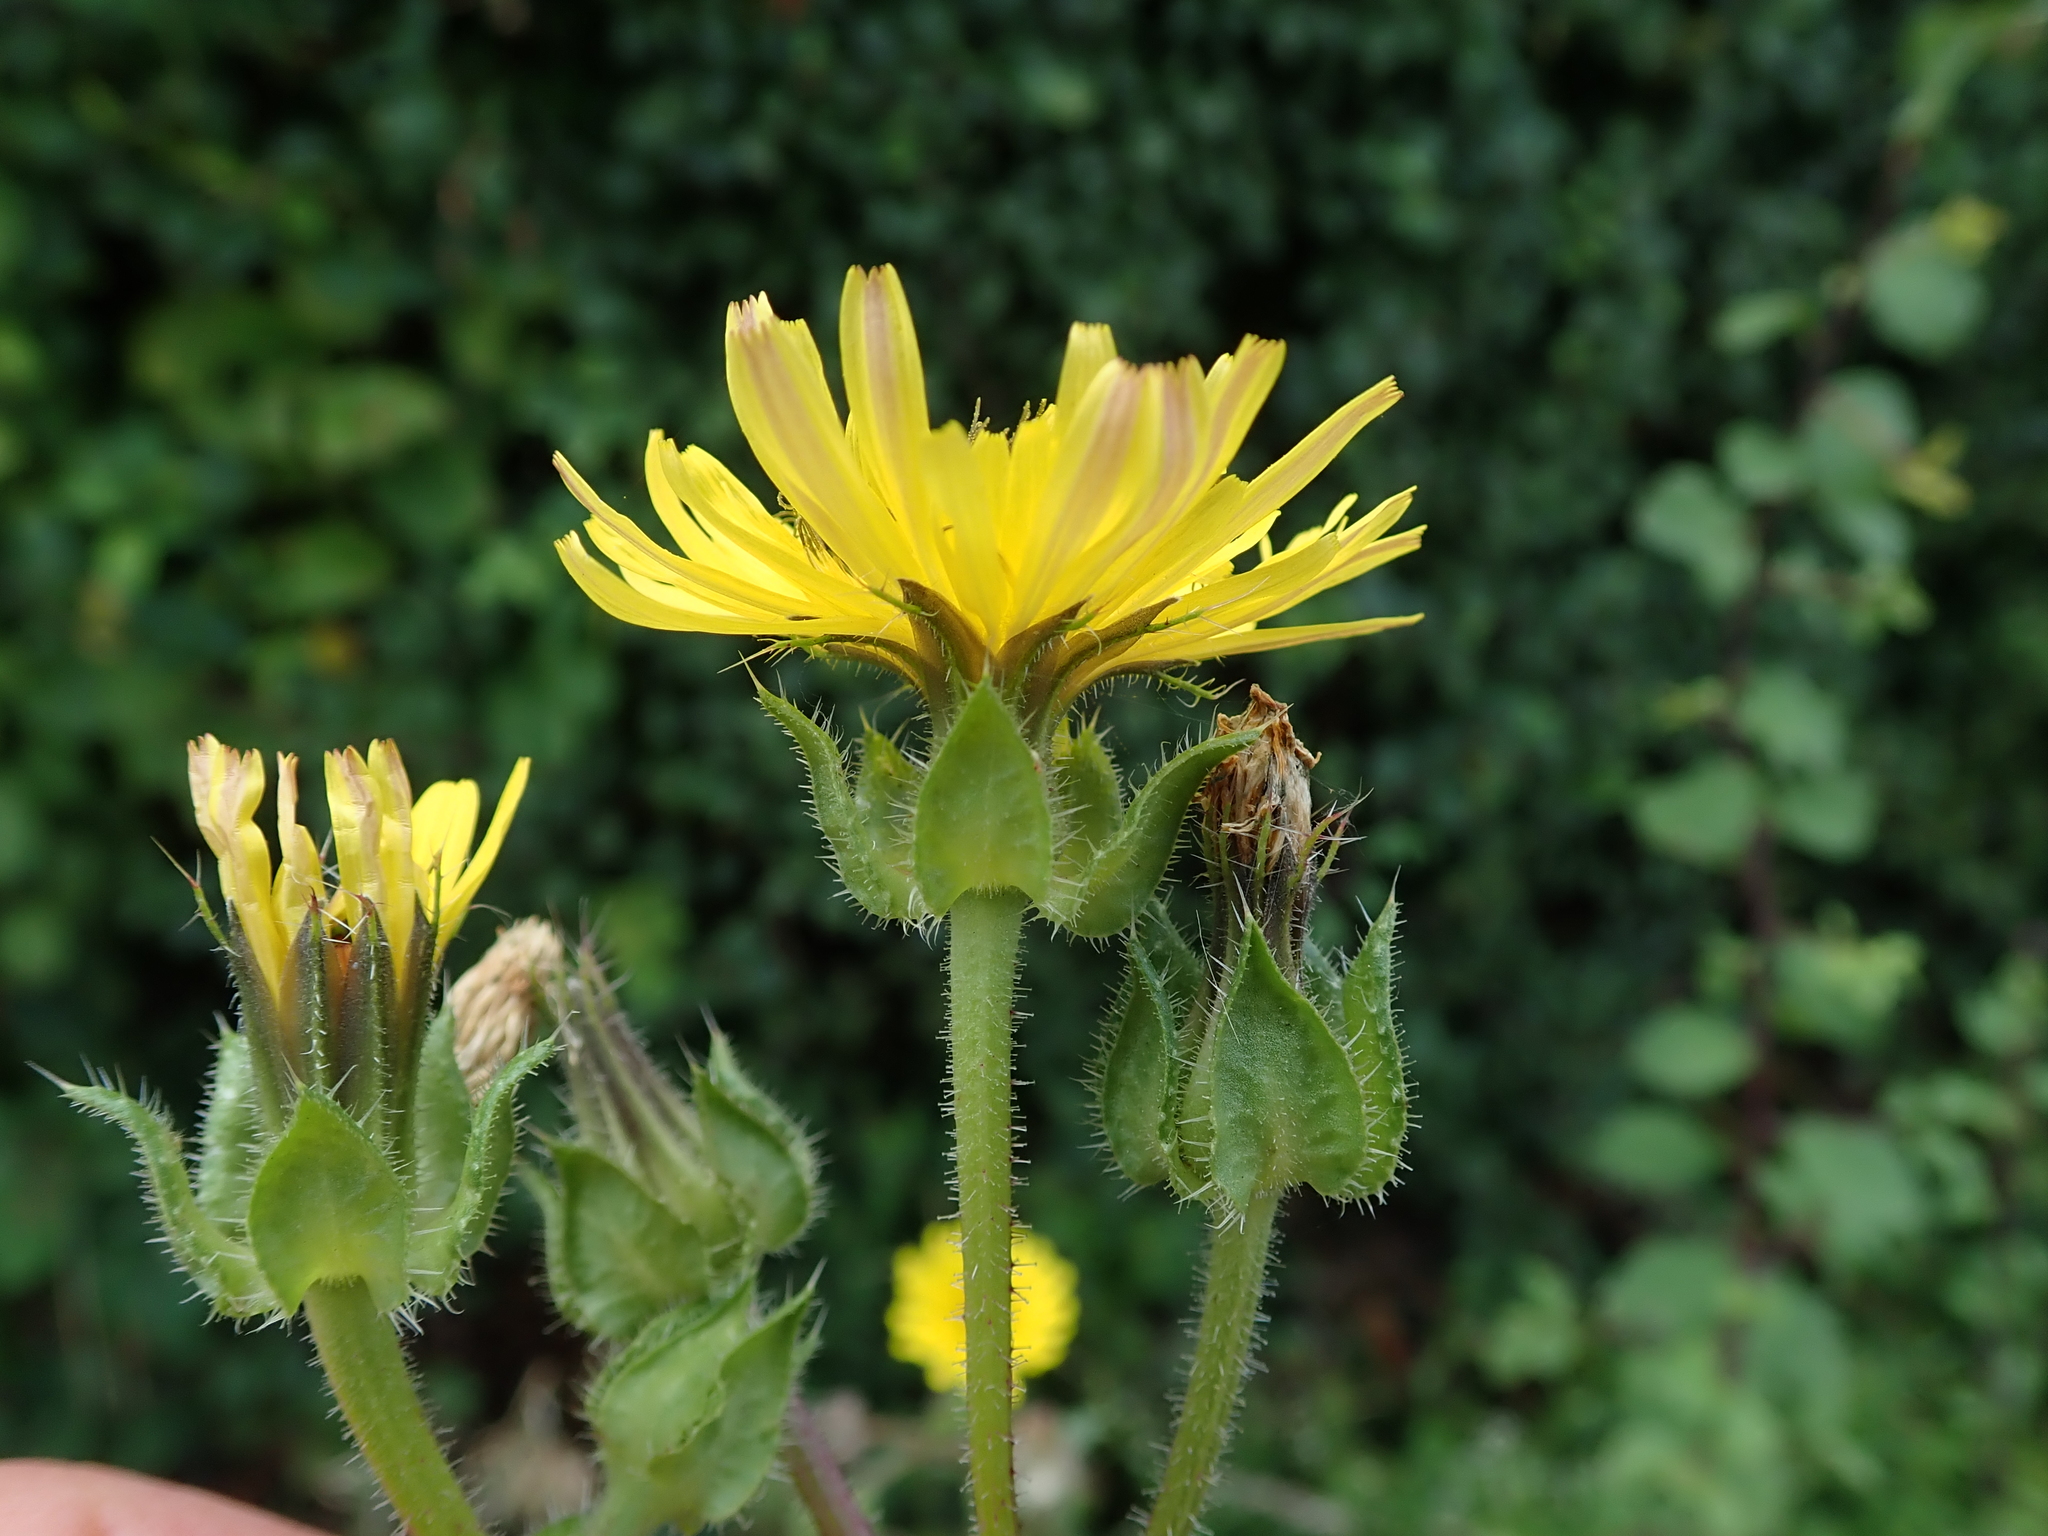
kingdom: Plantae
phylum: Tracheophyta
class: Magnoliopsida
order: Asterales
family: Asteraceae
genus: Helminthotheca
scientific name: Helminthotheca echioides
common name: Ox-tongue
